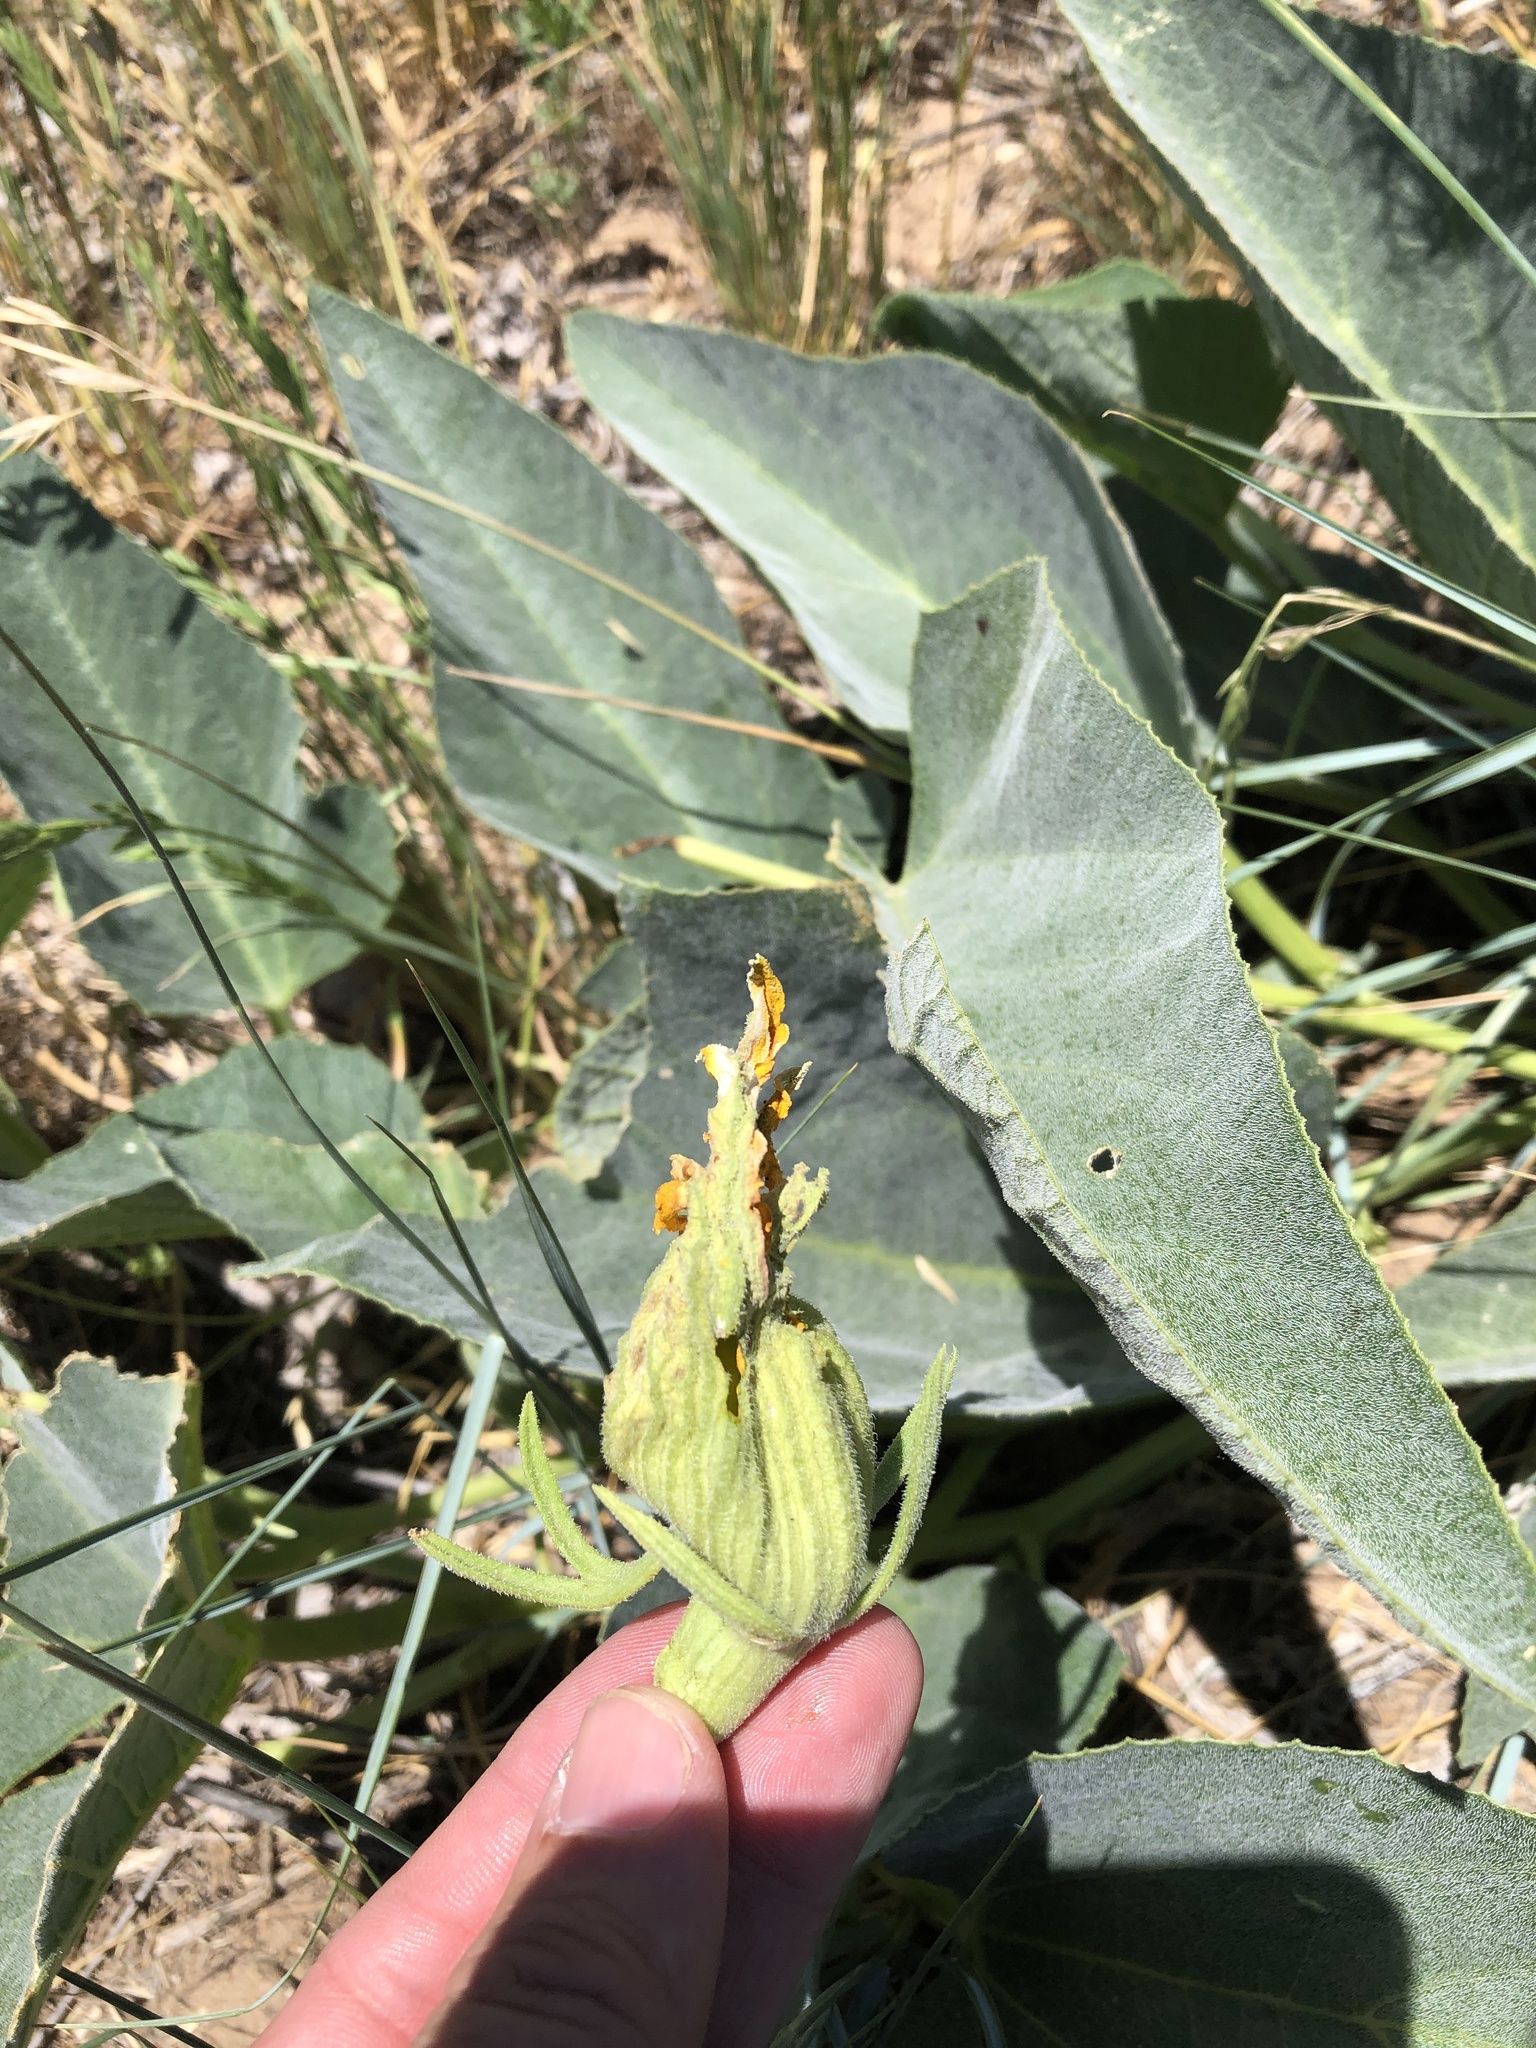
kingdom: Plantae
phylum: Tracheophyta
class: Magnoliopsida
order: Cucurbitales
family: Cucurbitaceae
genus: Cucurbita
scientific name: Cucurbita foetidissima
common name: Buffalo gourd
